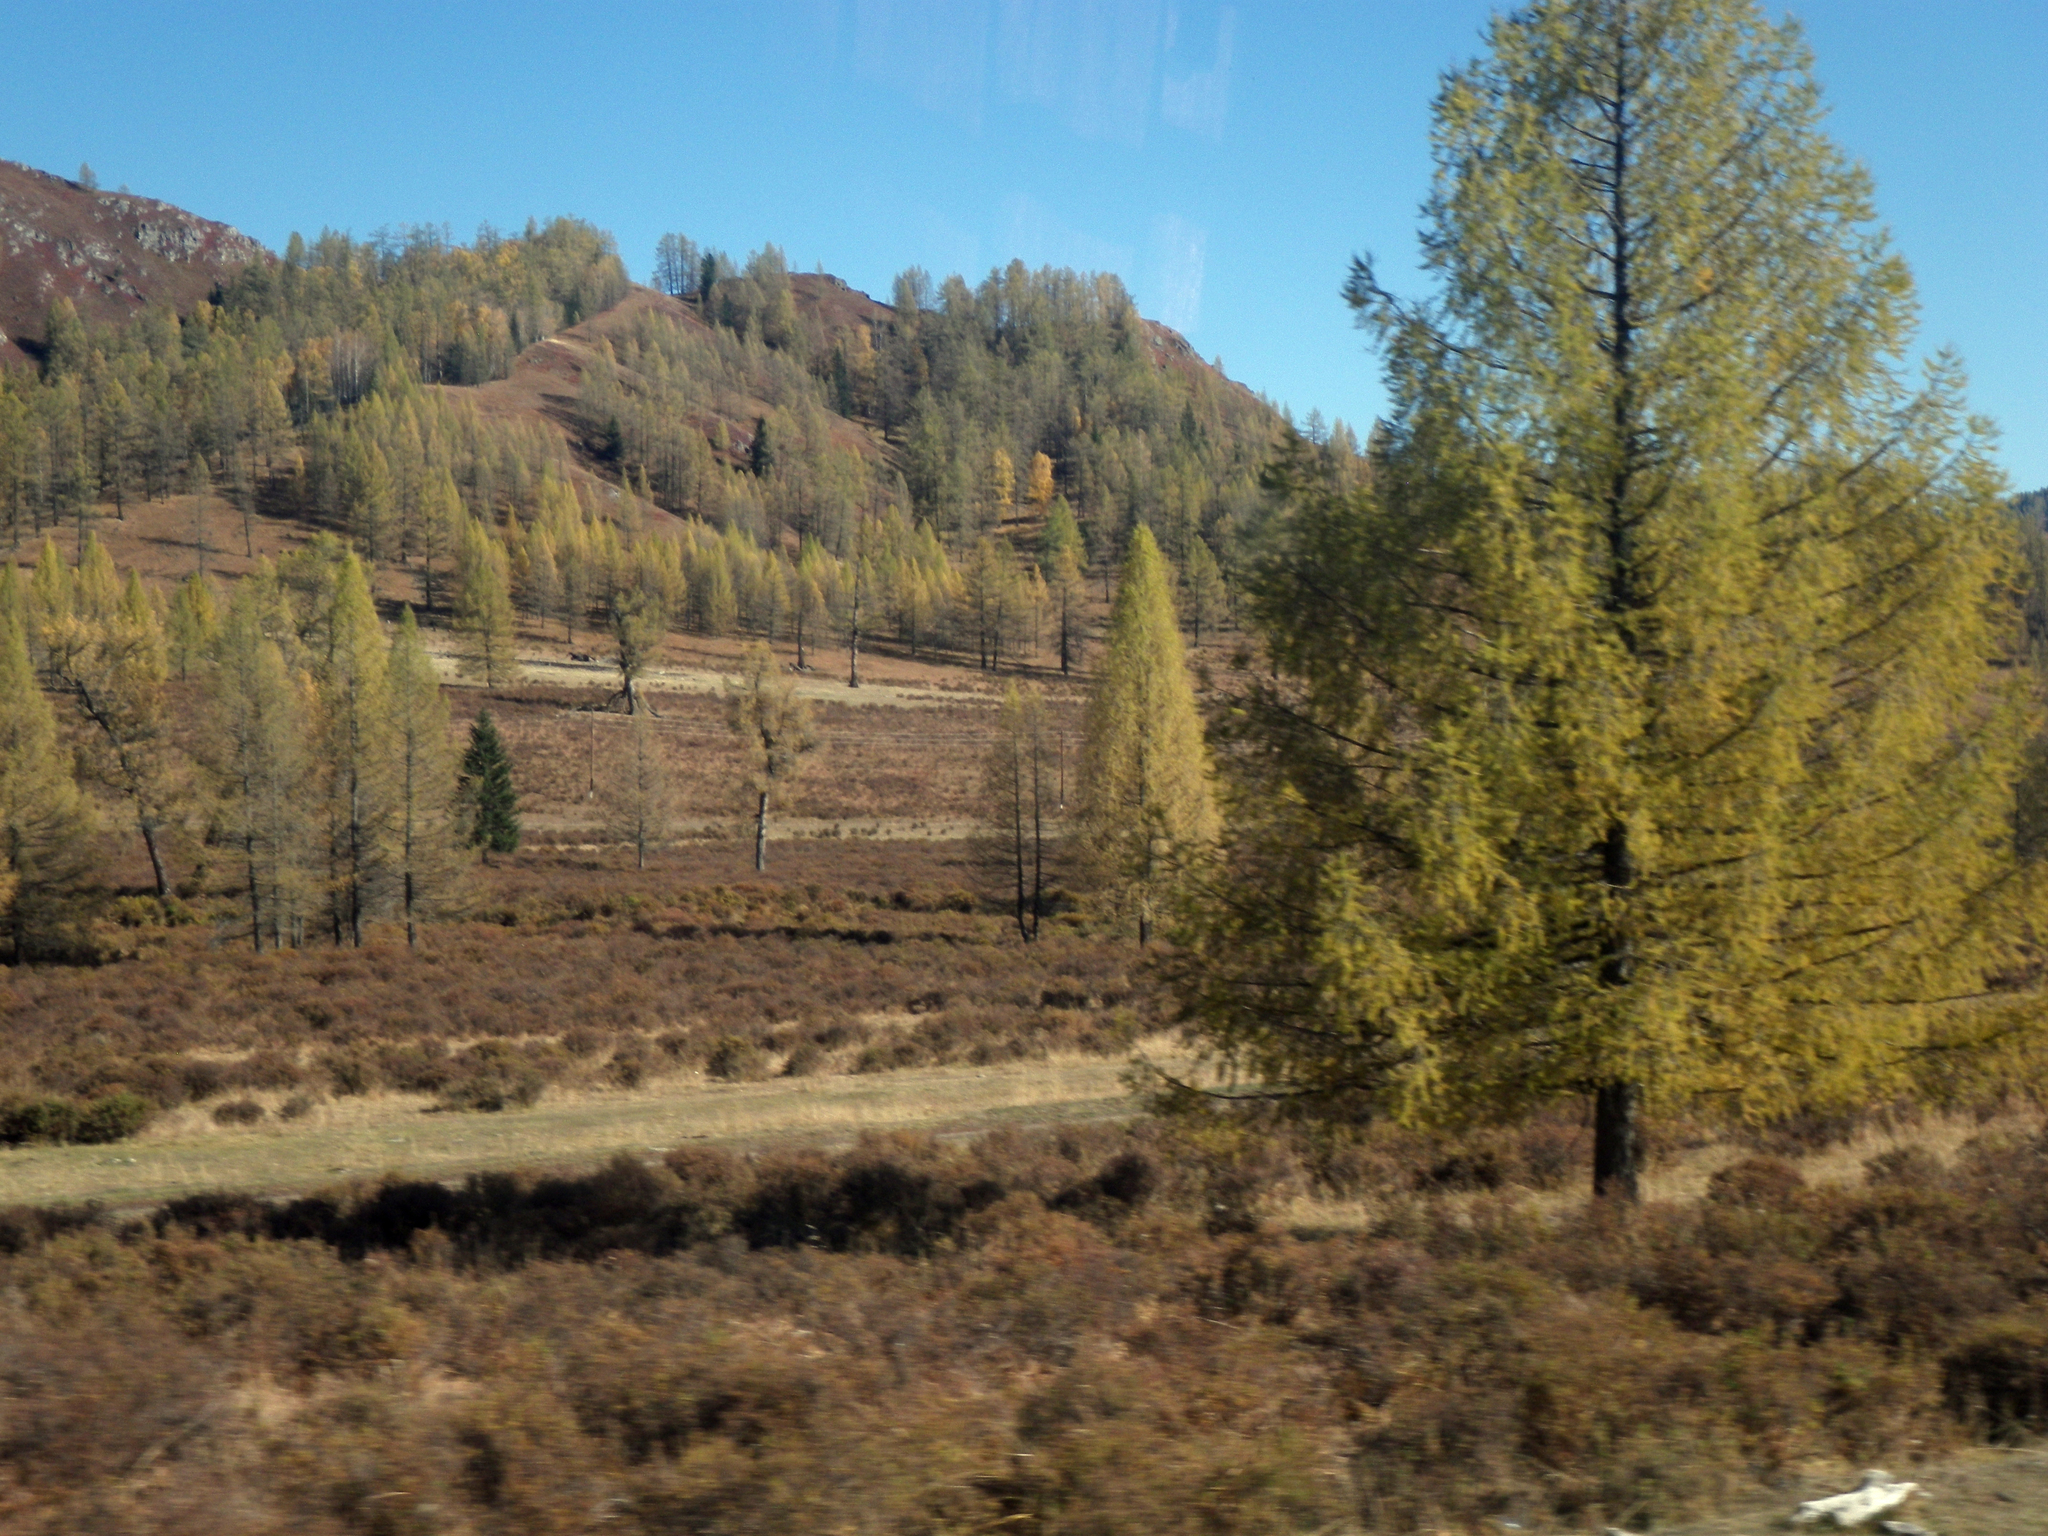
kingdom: Plantae
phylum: Tracheophyta
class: Pinopsida
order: Pinales
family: Pinaceae
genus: Larix
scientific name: Larix sibirica
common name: Siberian larch
